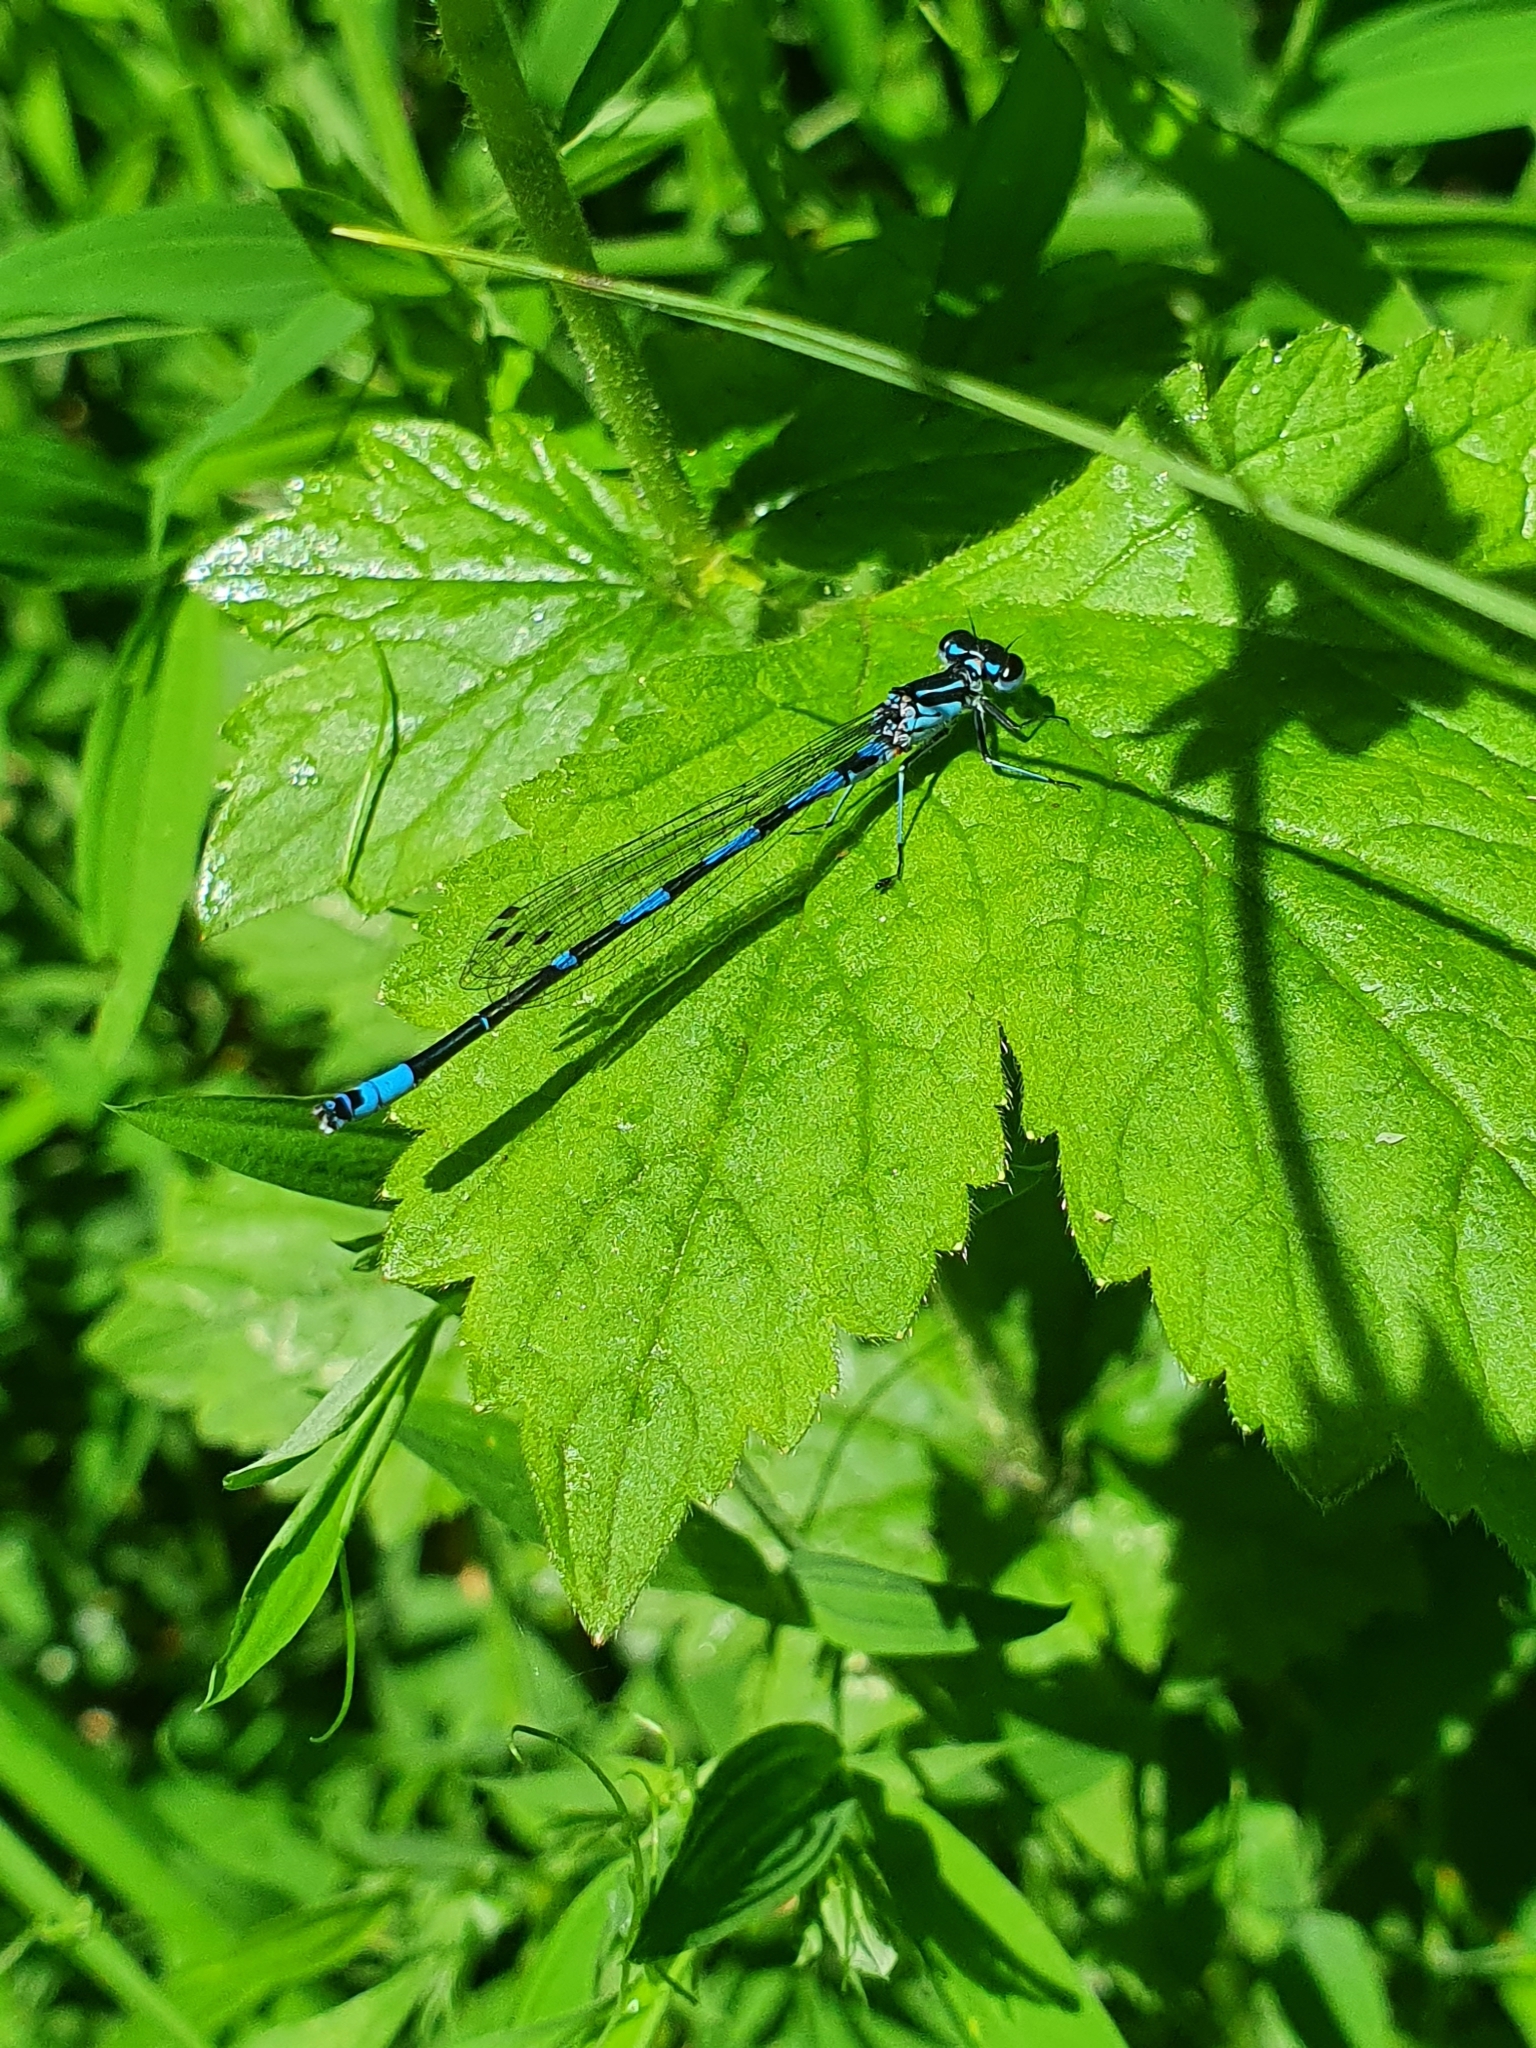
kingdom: Animalia
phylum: Arthropoda
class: Insecta
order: Odonata
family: Coenagrionidae
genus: Coenagrion
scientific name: Coenagrion pulchellum
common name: Variable bluet
